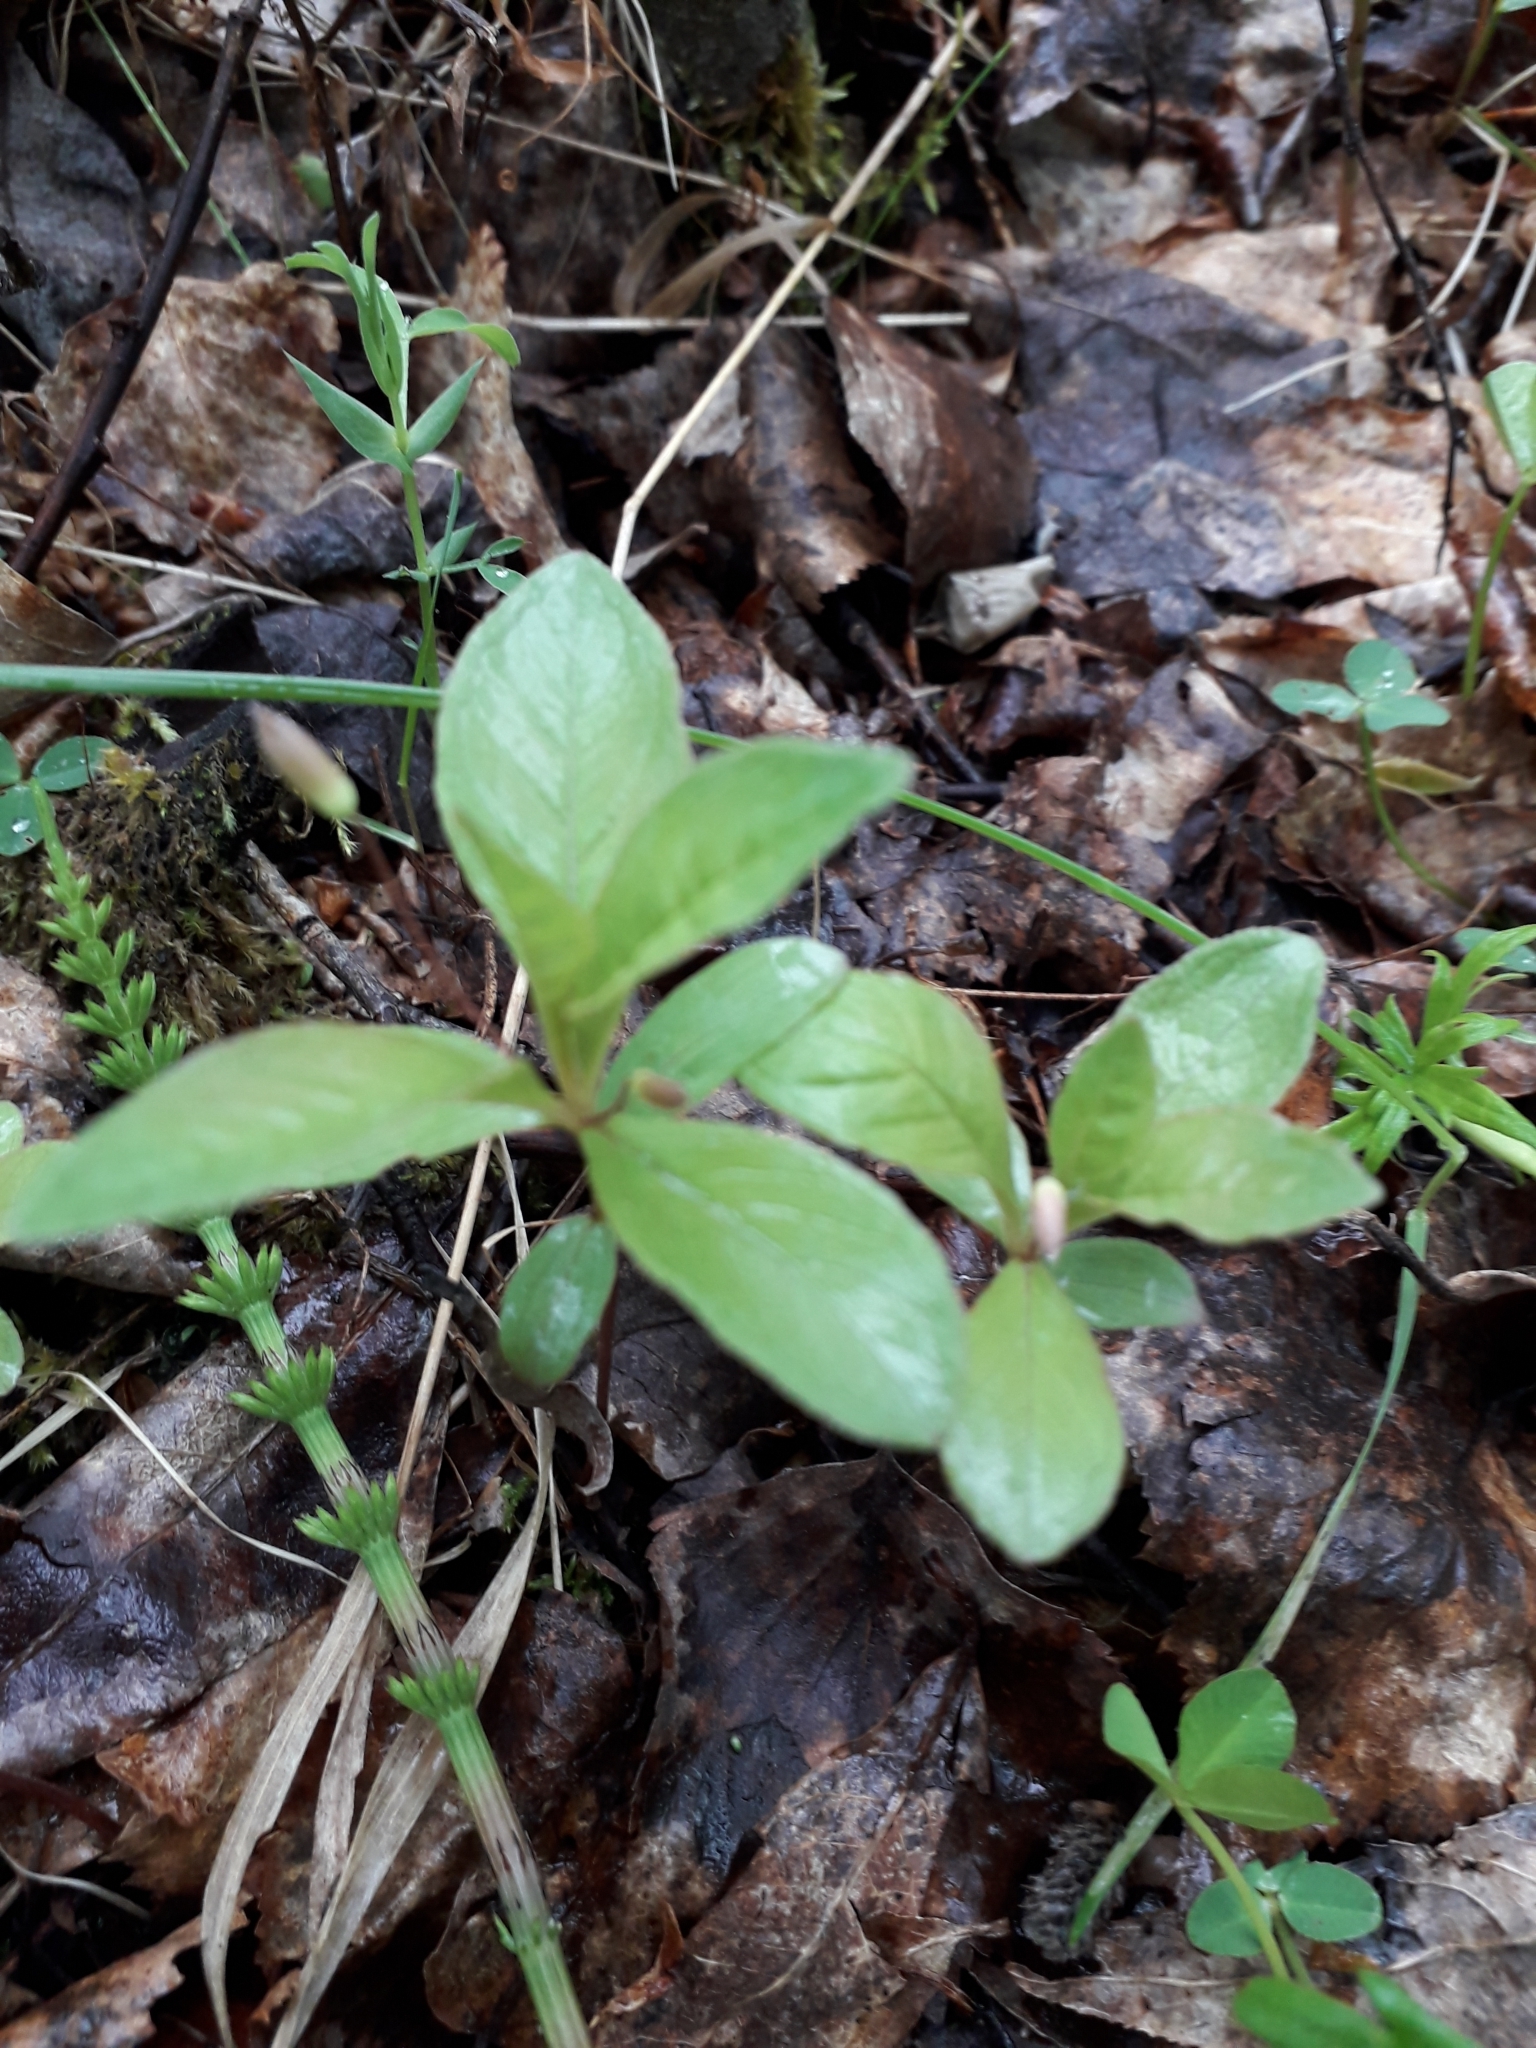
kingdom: Plantae
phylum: Tracheophyta
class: Magnoliopsida
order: Ericales
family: Primulaceae
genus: Lysimachia
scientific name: Lysimachia europaea
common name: Arctic starflower
